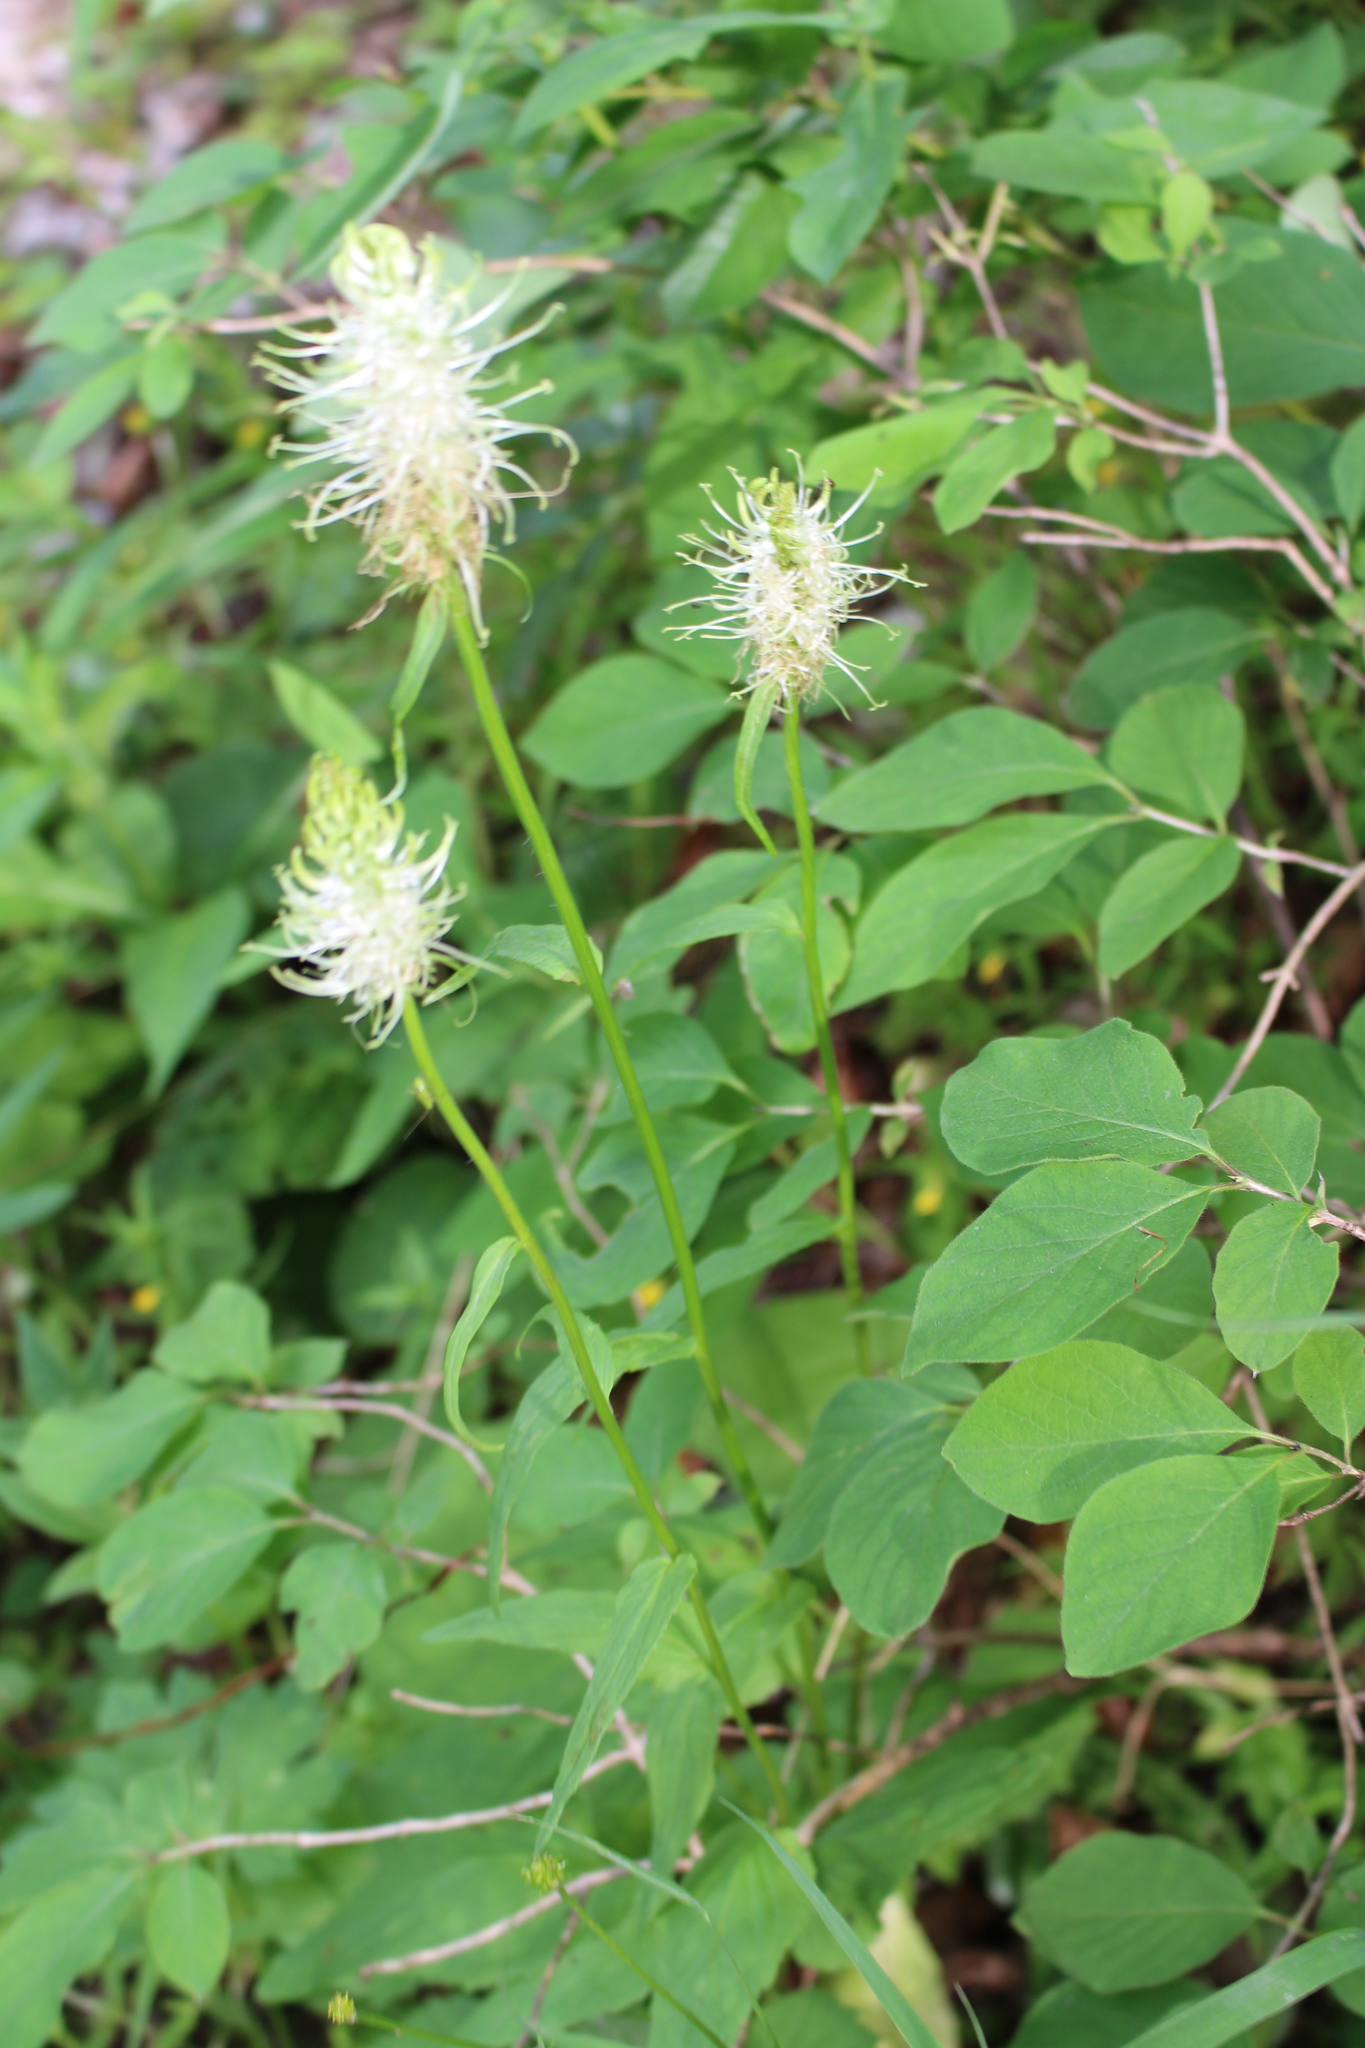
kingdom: Plantae
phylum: Tracheophyta
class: Magnoliopsida
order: Asterales
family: Campanulaceae
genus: Phyteuma
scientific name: Phyteuma spicatum
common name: Spiked rampion
